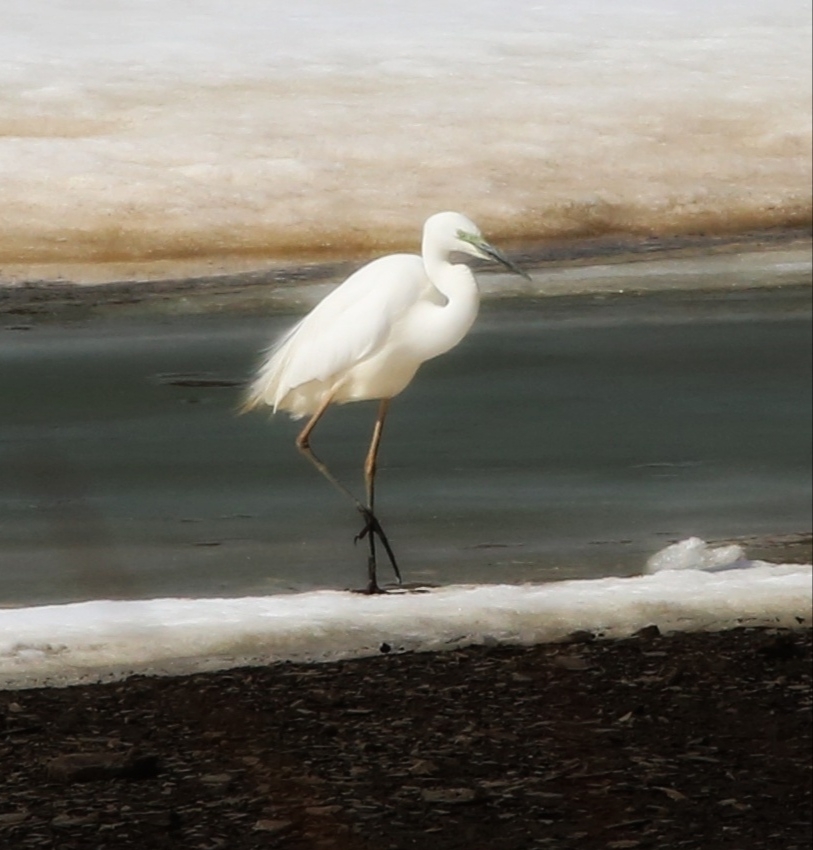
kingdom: Animalia
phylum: Chordata
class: Aves
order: Pelecaniformes
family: Ardeidae
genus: Ardea
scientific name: Ardea alba
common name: Great egret
